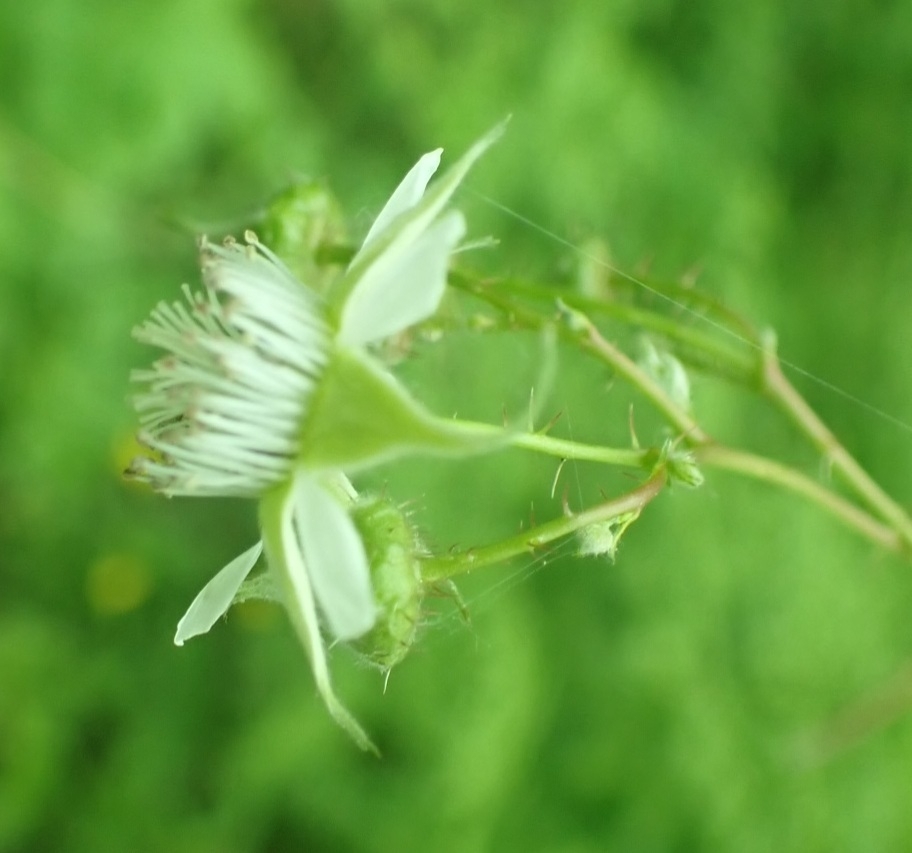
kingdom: Plantae
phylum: Tracheophyta
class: Magnoliopsida
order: Rosales
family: Rosaceae
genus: Rubus
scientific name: Rubus idaeus
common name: Raspberry
